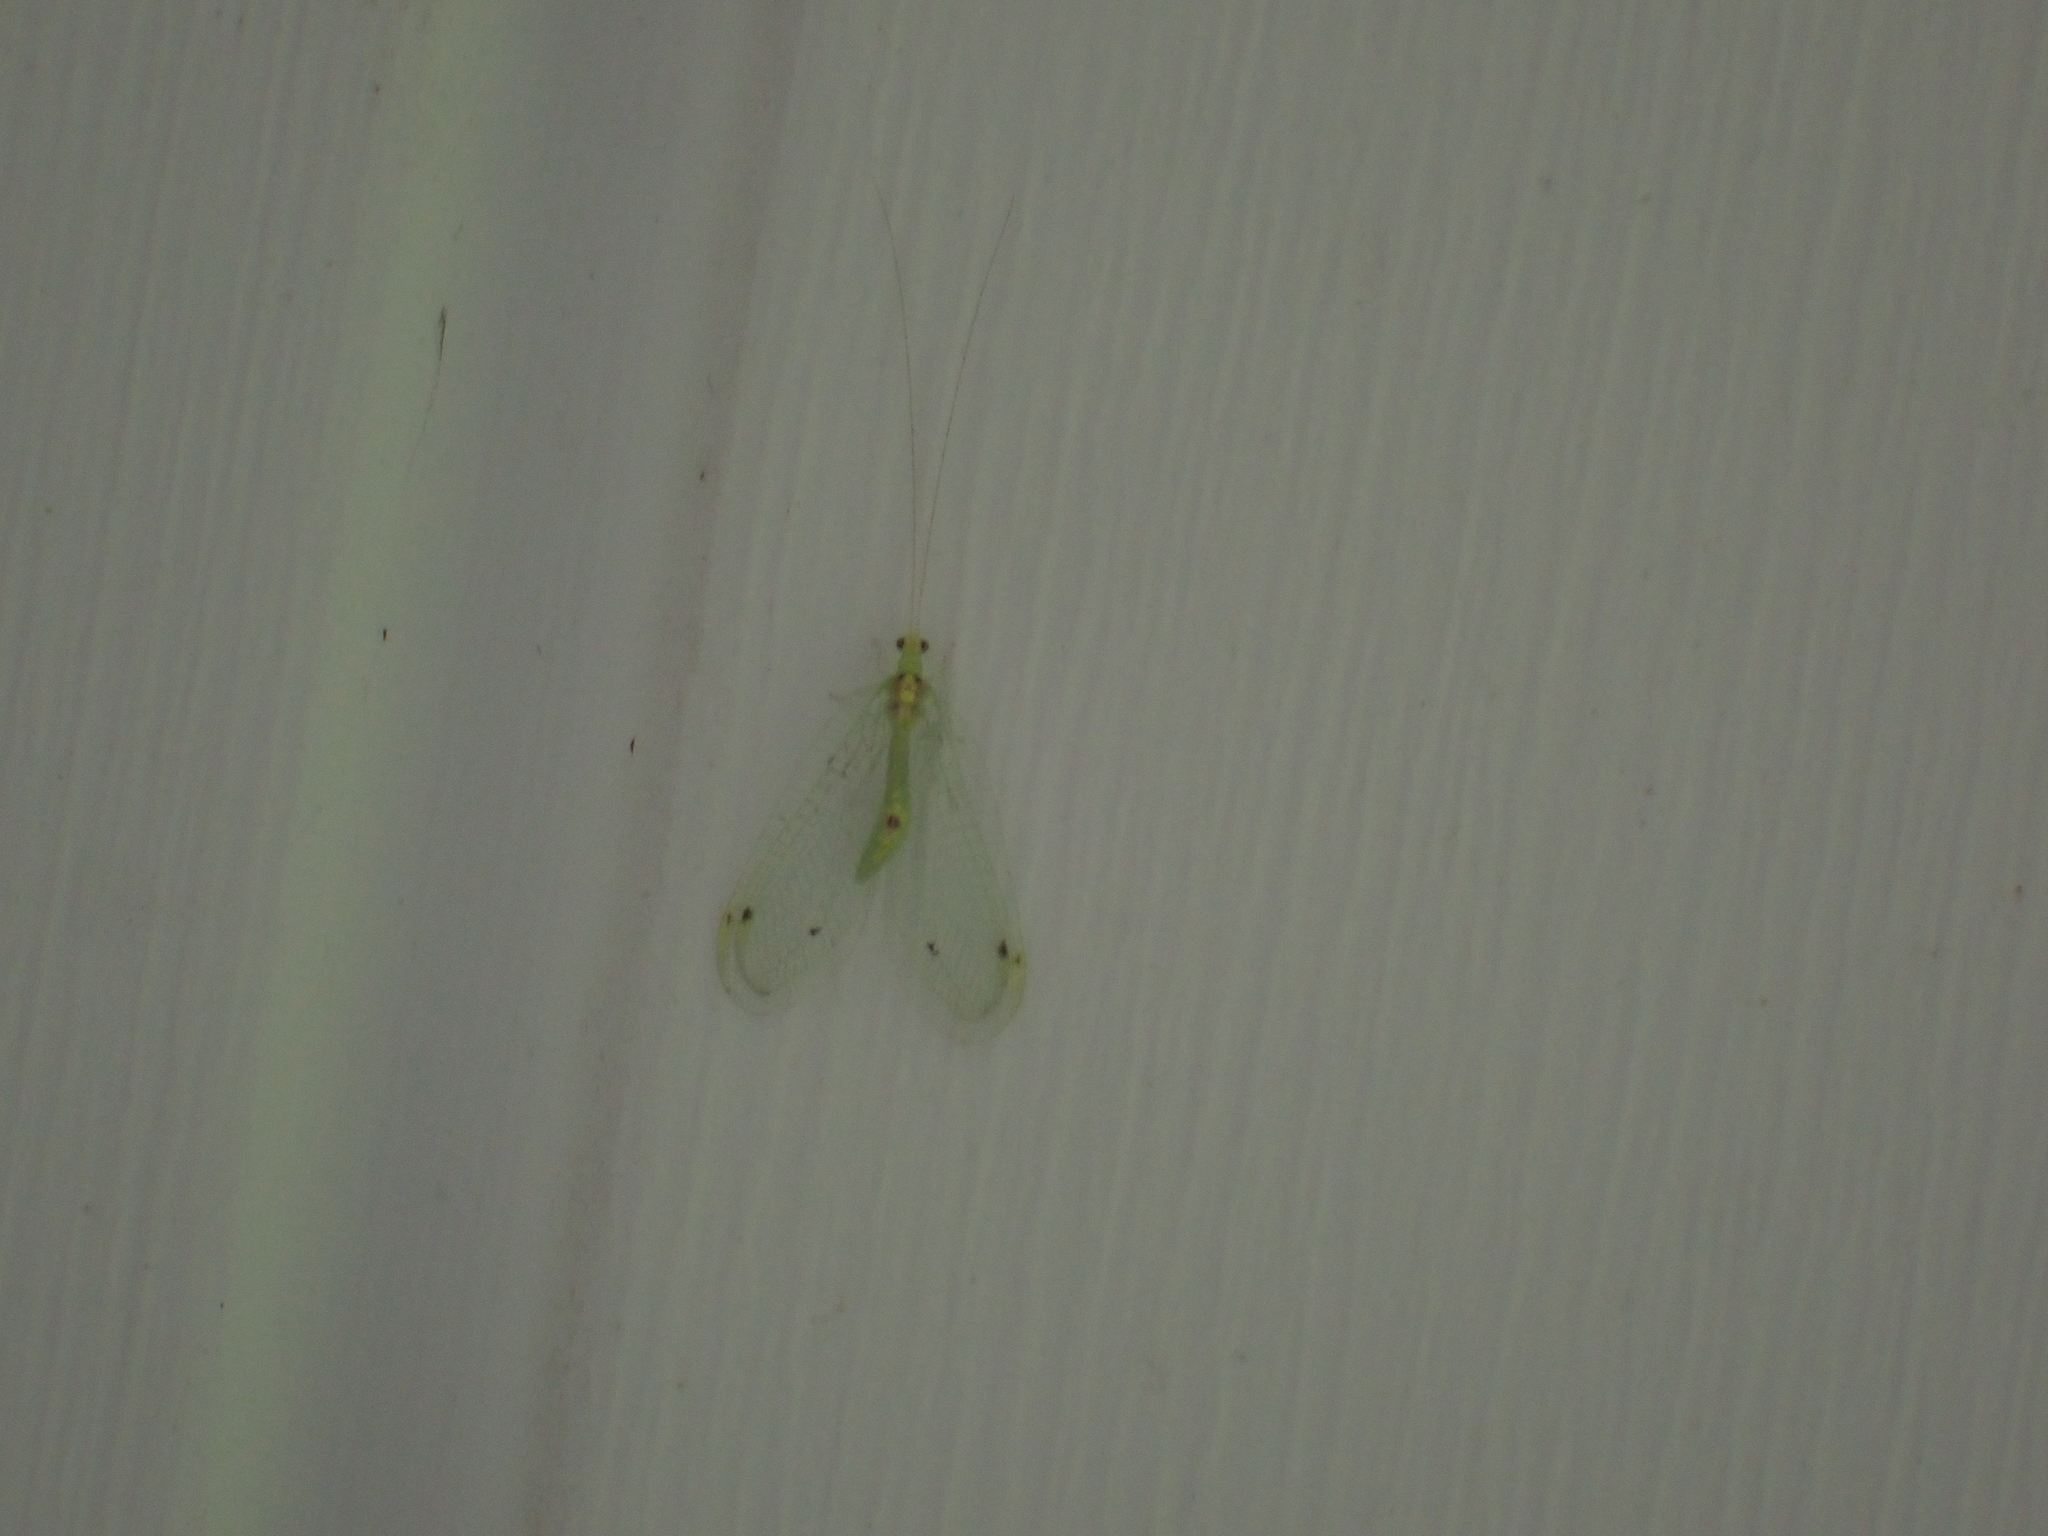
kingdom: Animalia
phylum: Arthropoda
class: Insecta
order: Neuroptera
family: Chrysopidae
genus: Leucochrysa
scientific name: Leucochrysa insularis
